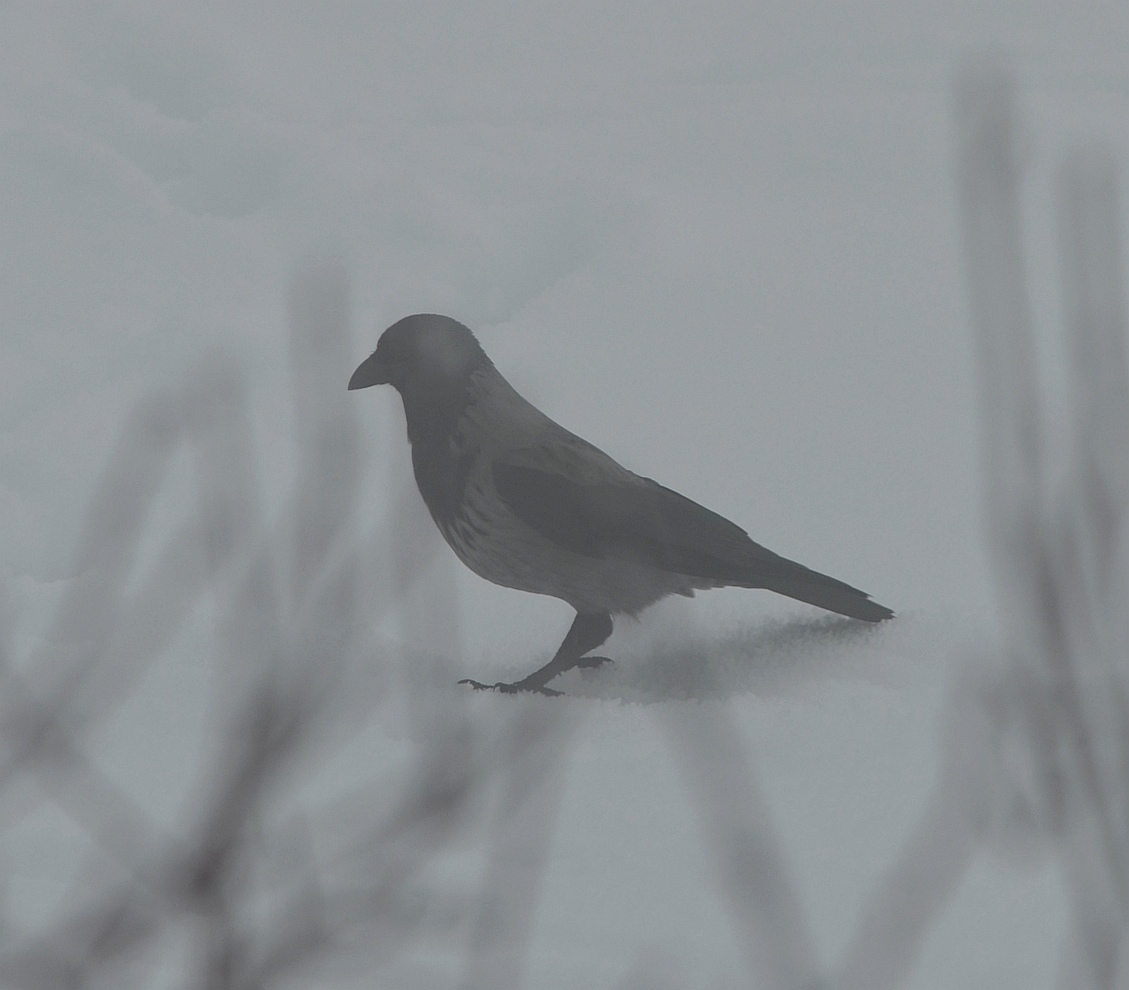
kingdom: Animalia
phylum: Chordata
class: Aves
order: Passeriformes
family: Corvidae
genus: Corvus
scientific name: Corvus cornix
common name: Hooded crow
